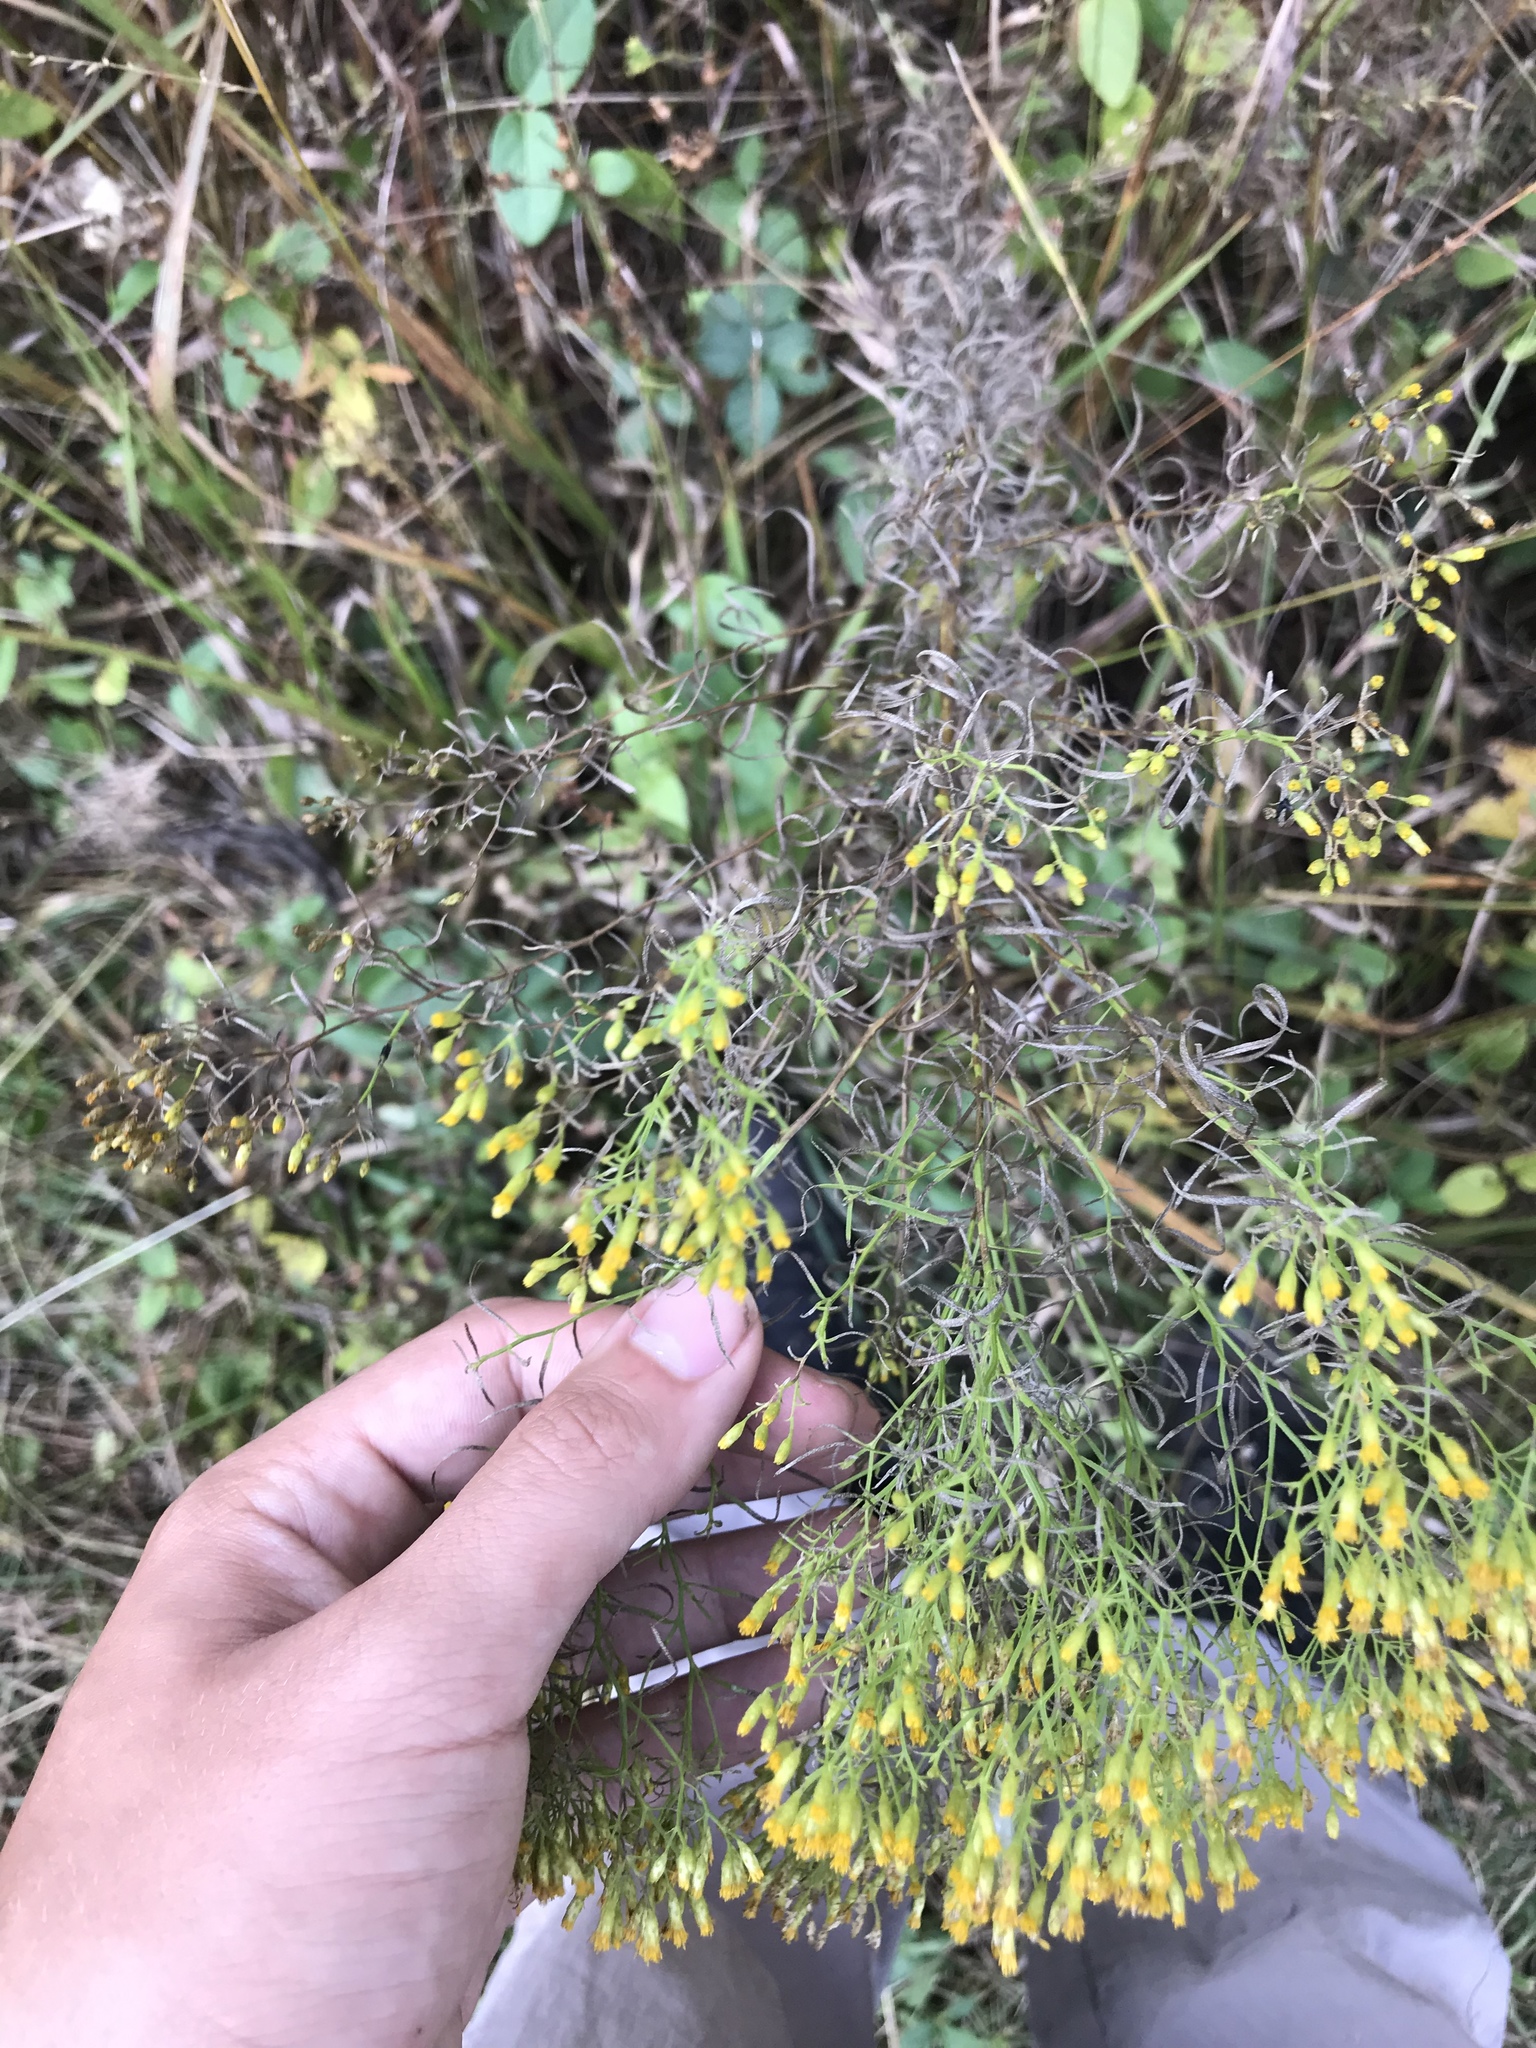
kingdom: Plantae
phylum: Tracheophyta
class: Magnoliopsida
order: Asterales
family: Asteraceae
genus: Euthamia
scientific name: Euthamia caroliniana
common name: Coastal plain goldentop
